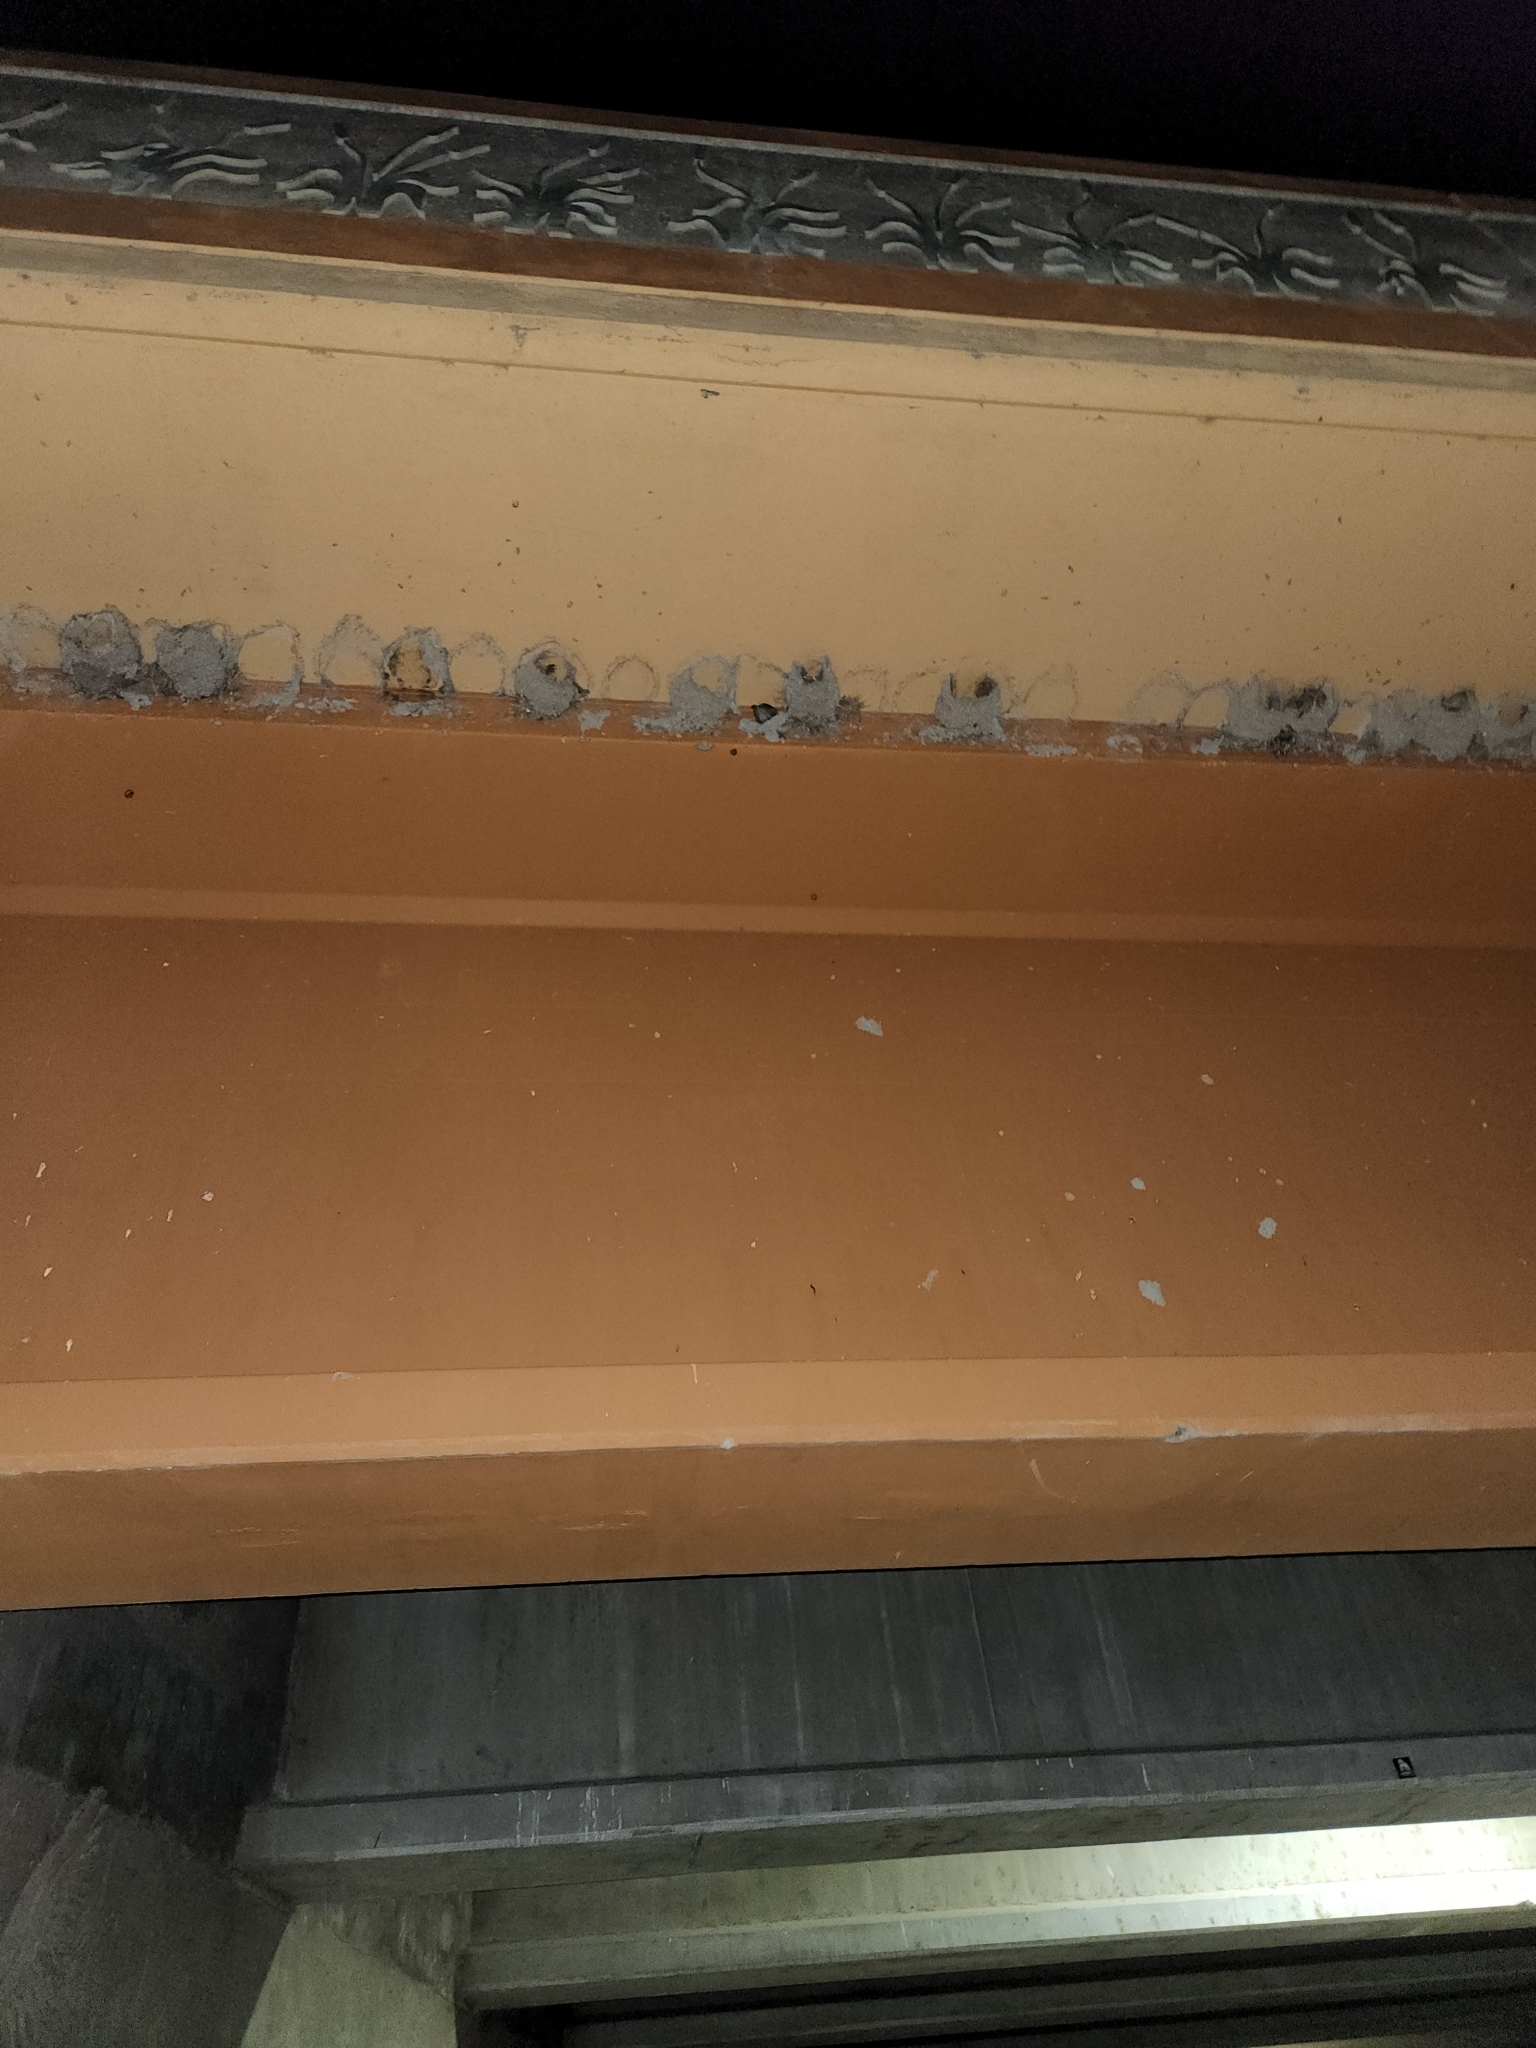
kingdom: Animalia
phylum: Chordata
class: Aves
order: Passeriformes
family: Hirundinidae
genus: Petrochelidon
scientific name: Petrochelidon pyrrhonota
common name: American cliff swallow
